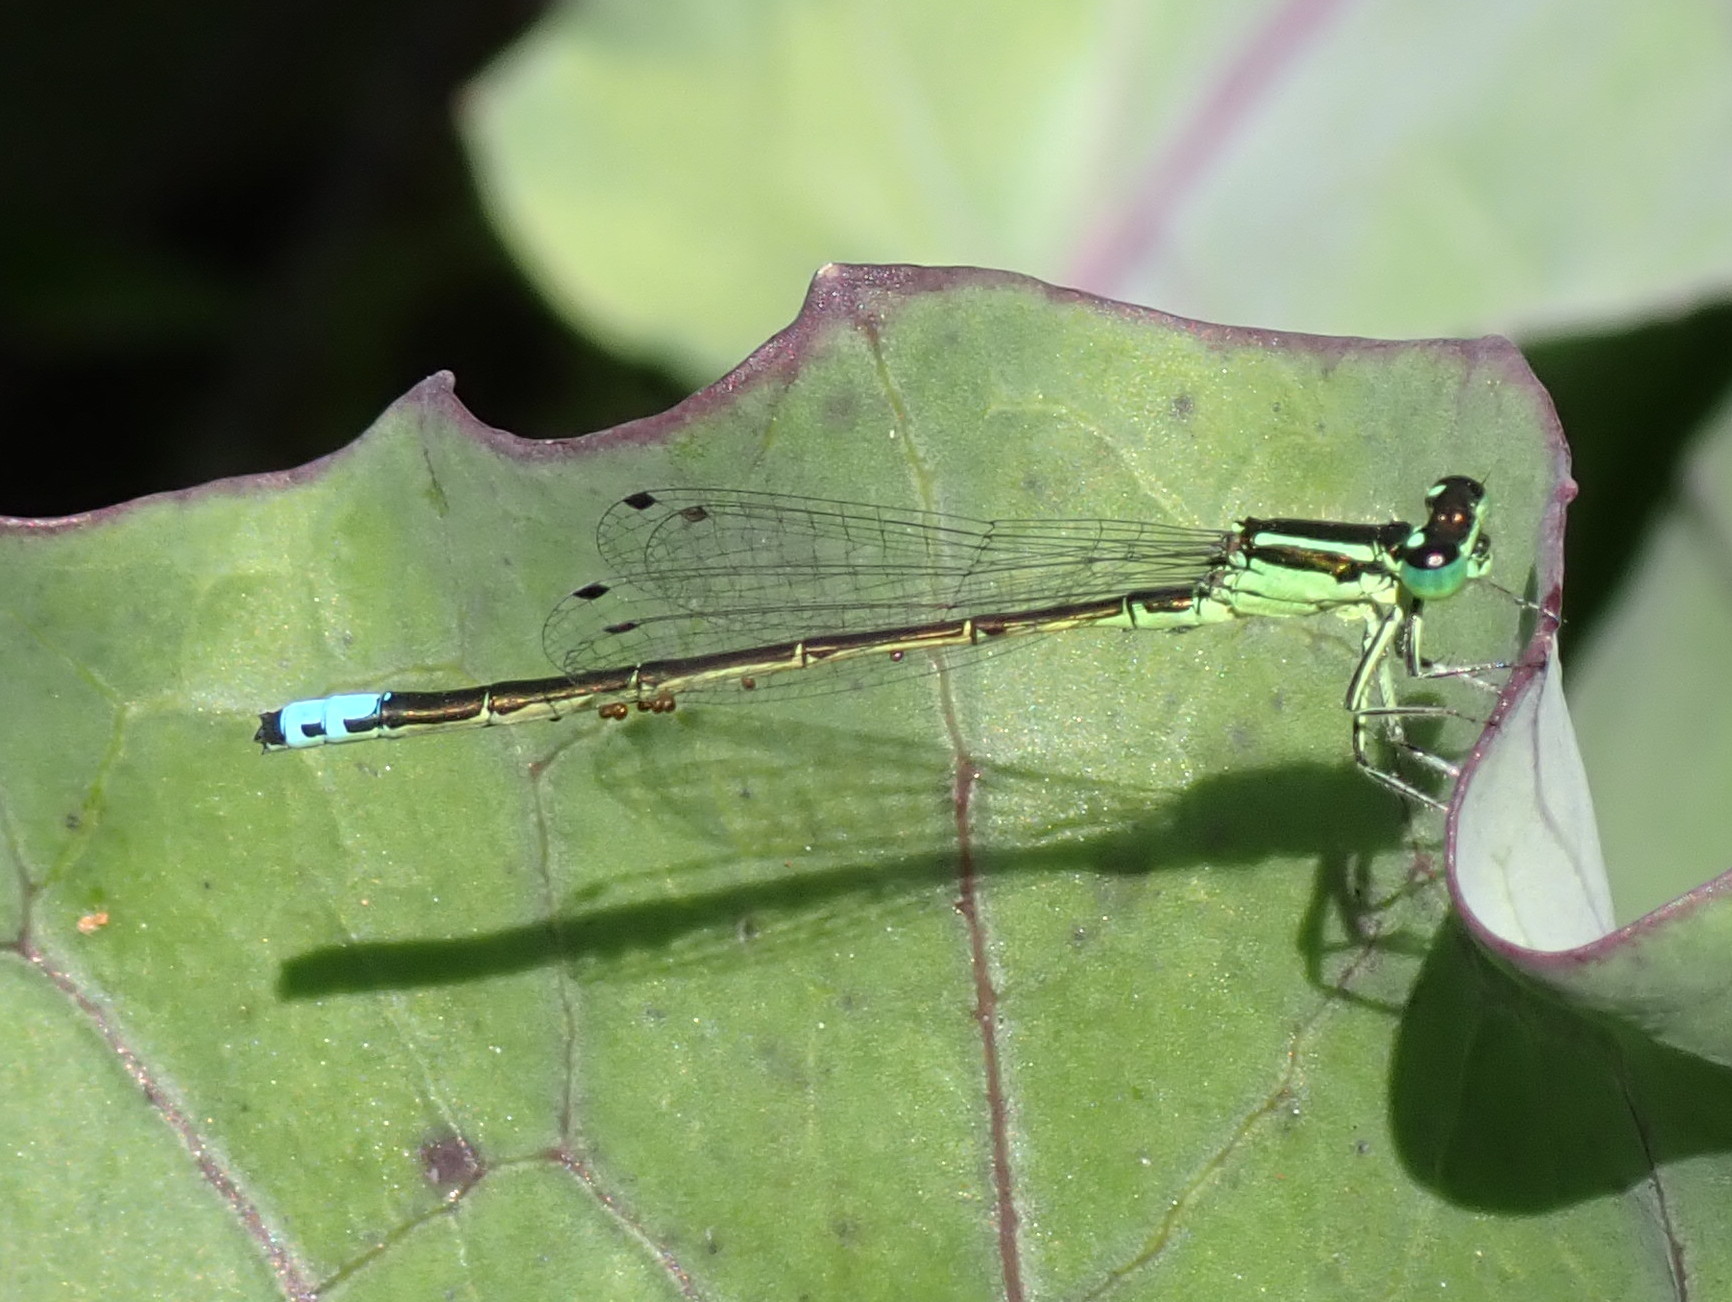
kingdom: Animalia
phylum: Arthropoda
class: Insecta
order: Odonata
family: Coenagrionidae
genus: Ischnura
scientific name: Ischnura verticalis
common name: Eastern forktail
